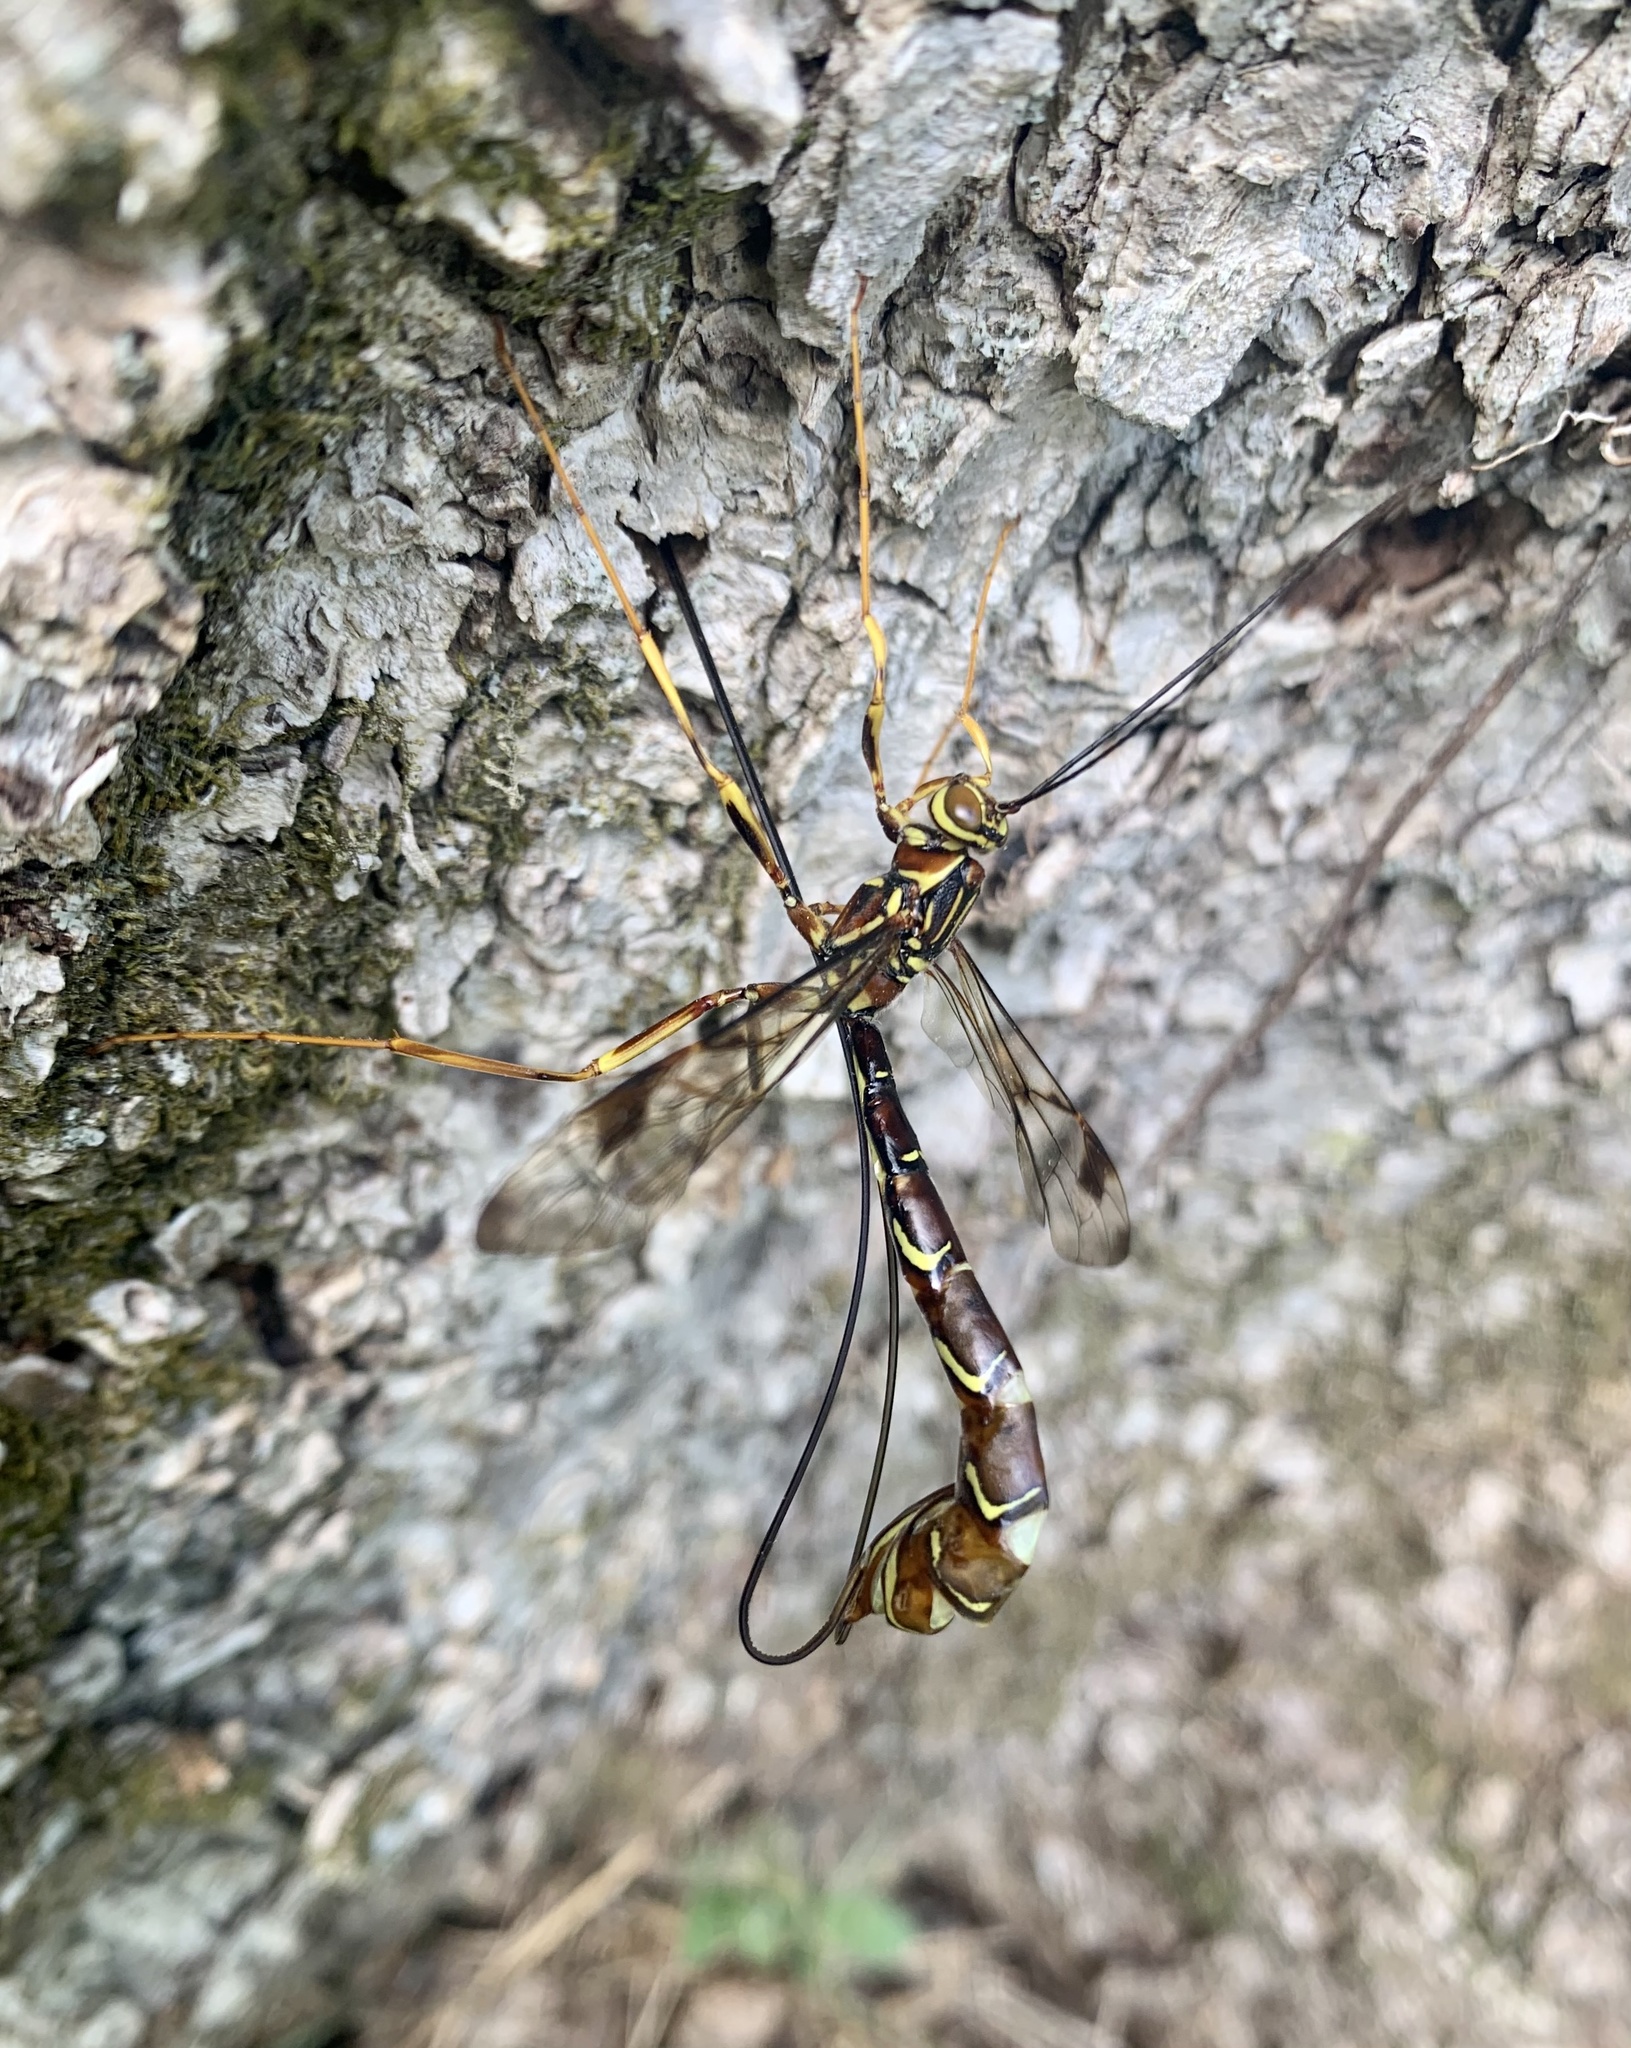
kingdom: Animalia
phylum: Arthropoda
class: Insecta
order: Hymenoptera
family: Ichneumonidae
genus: Megarhyssa
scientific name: Megarhyssa macrura
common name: Long-tailed giant ichneumonid wasp
